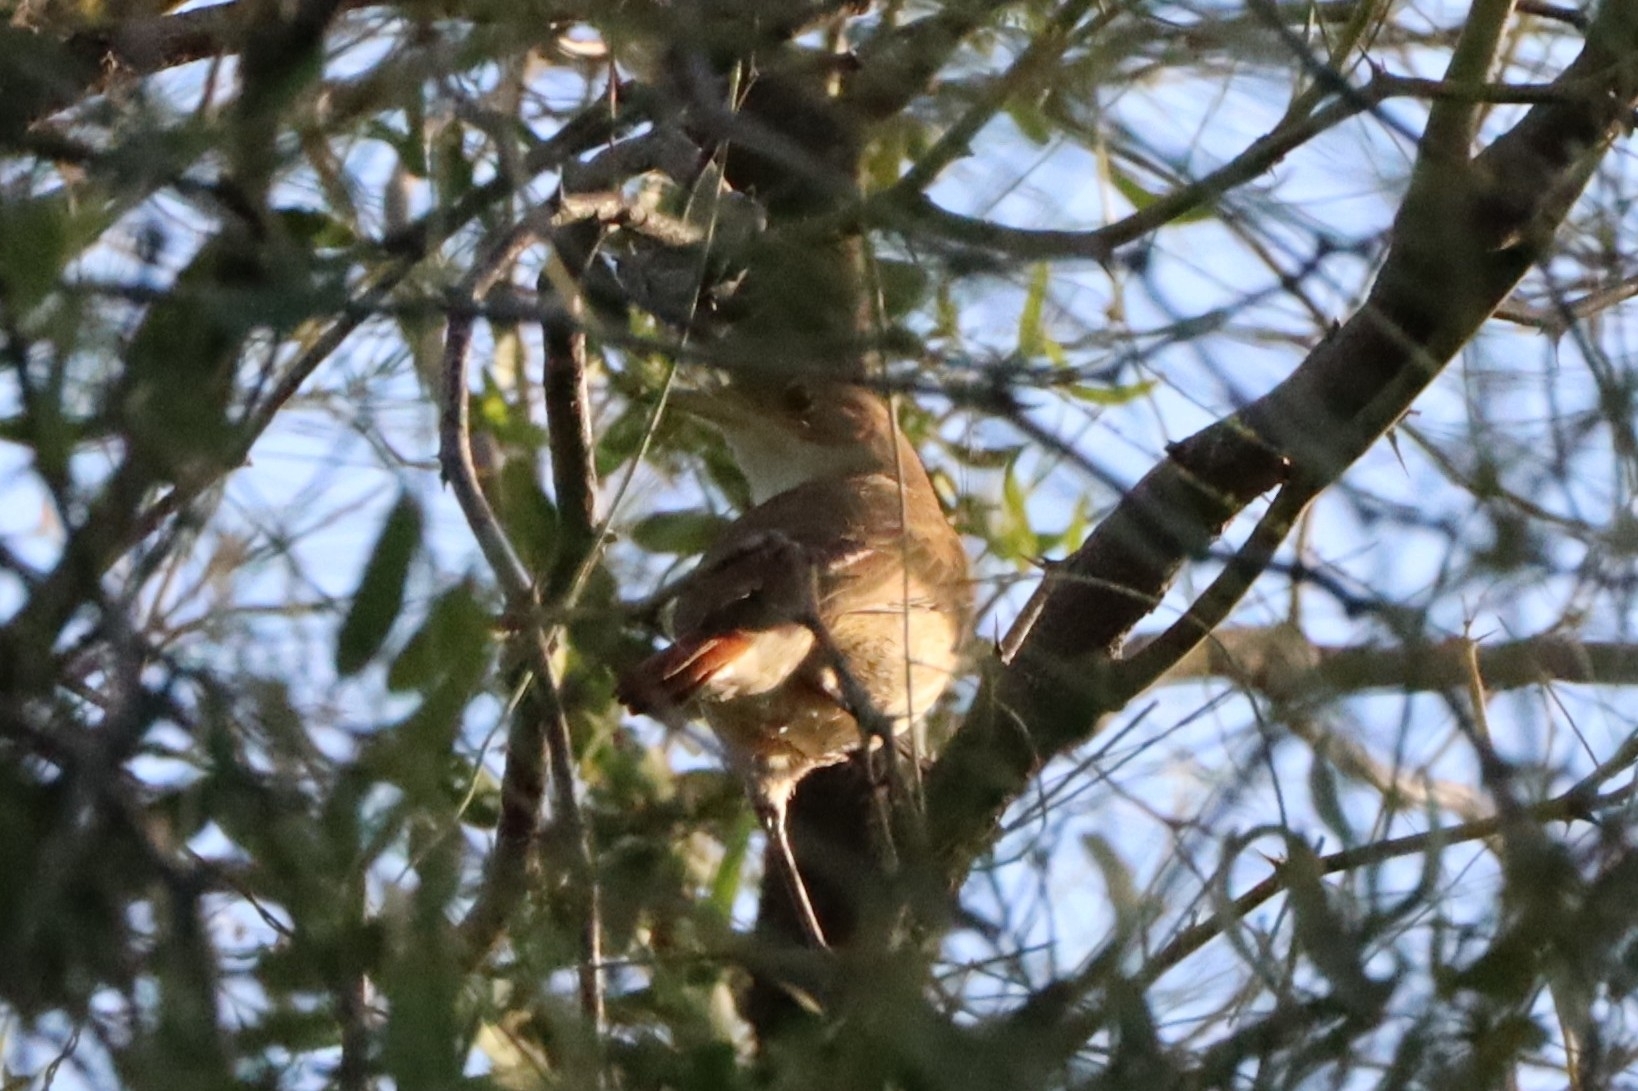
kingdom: Animalia
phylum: Chordata
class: Aves
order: Passeriformes
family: Furnariidae
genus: Furnarius
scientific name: Furnarius rufus
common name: Rufous hornero
